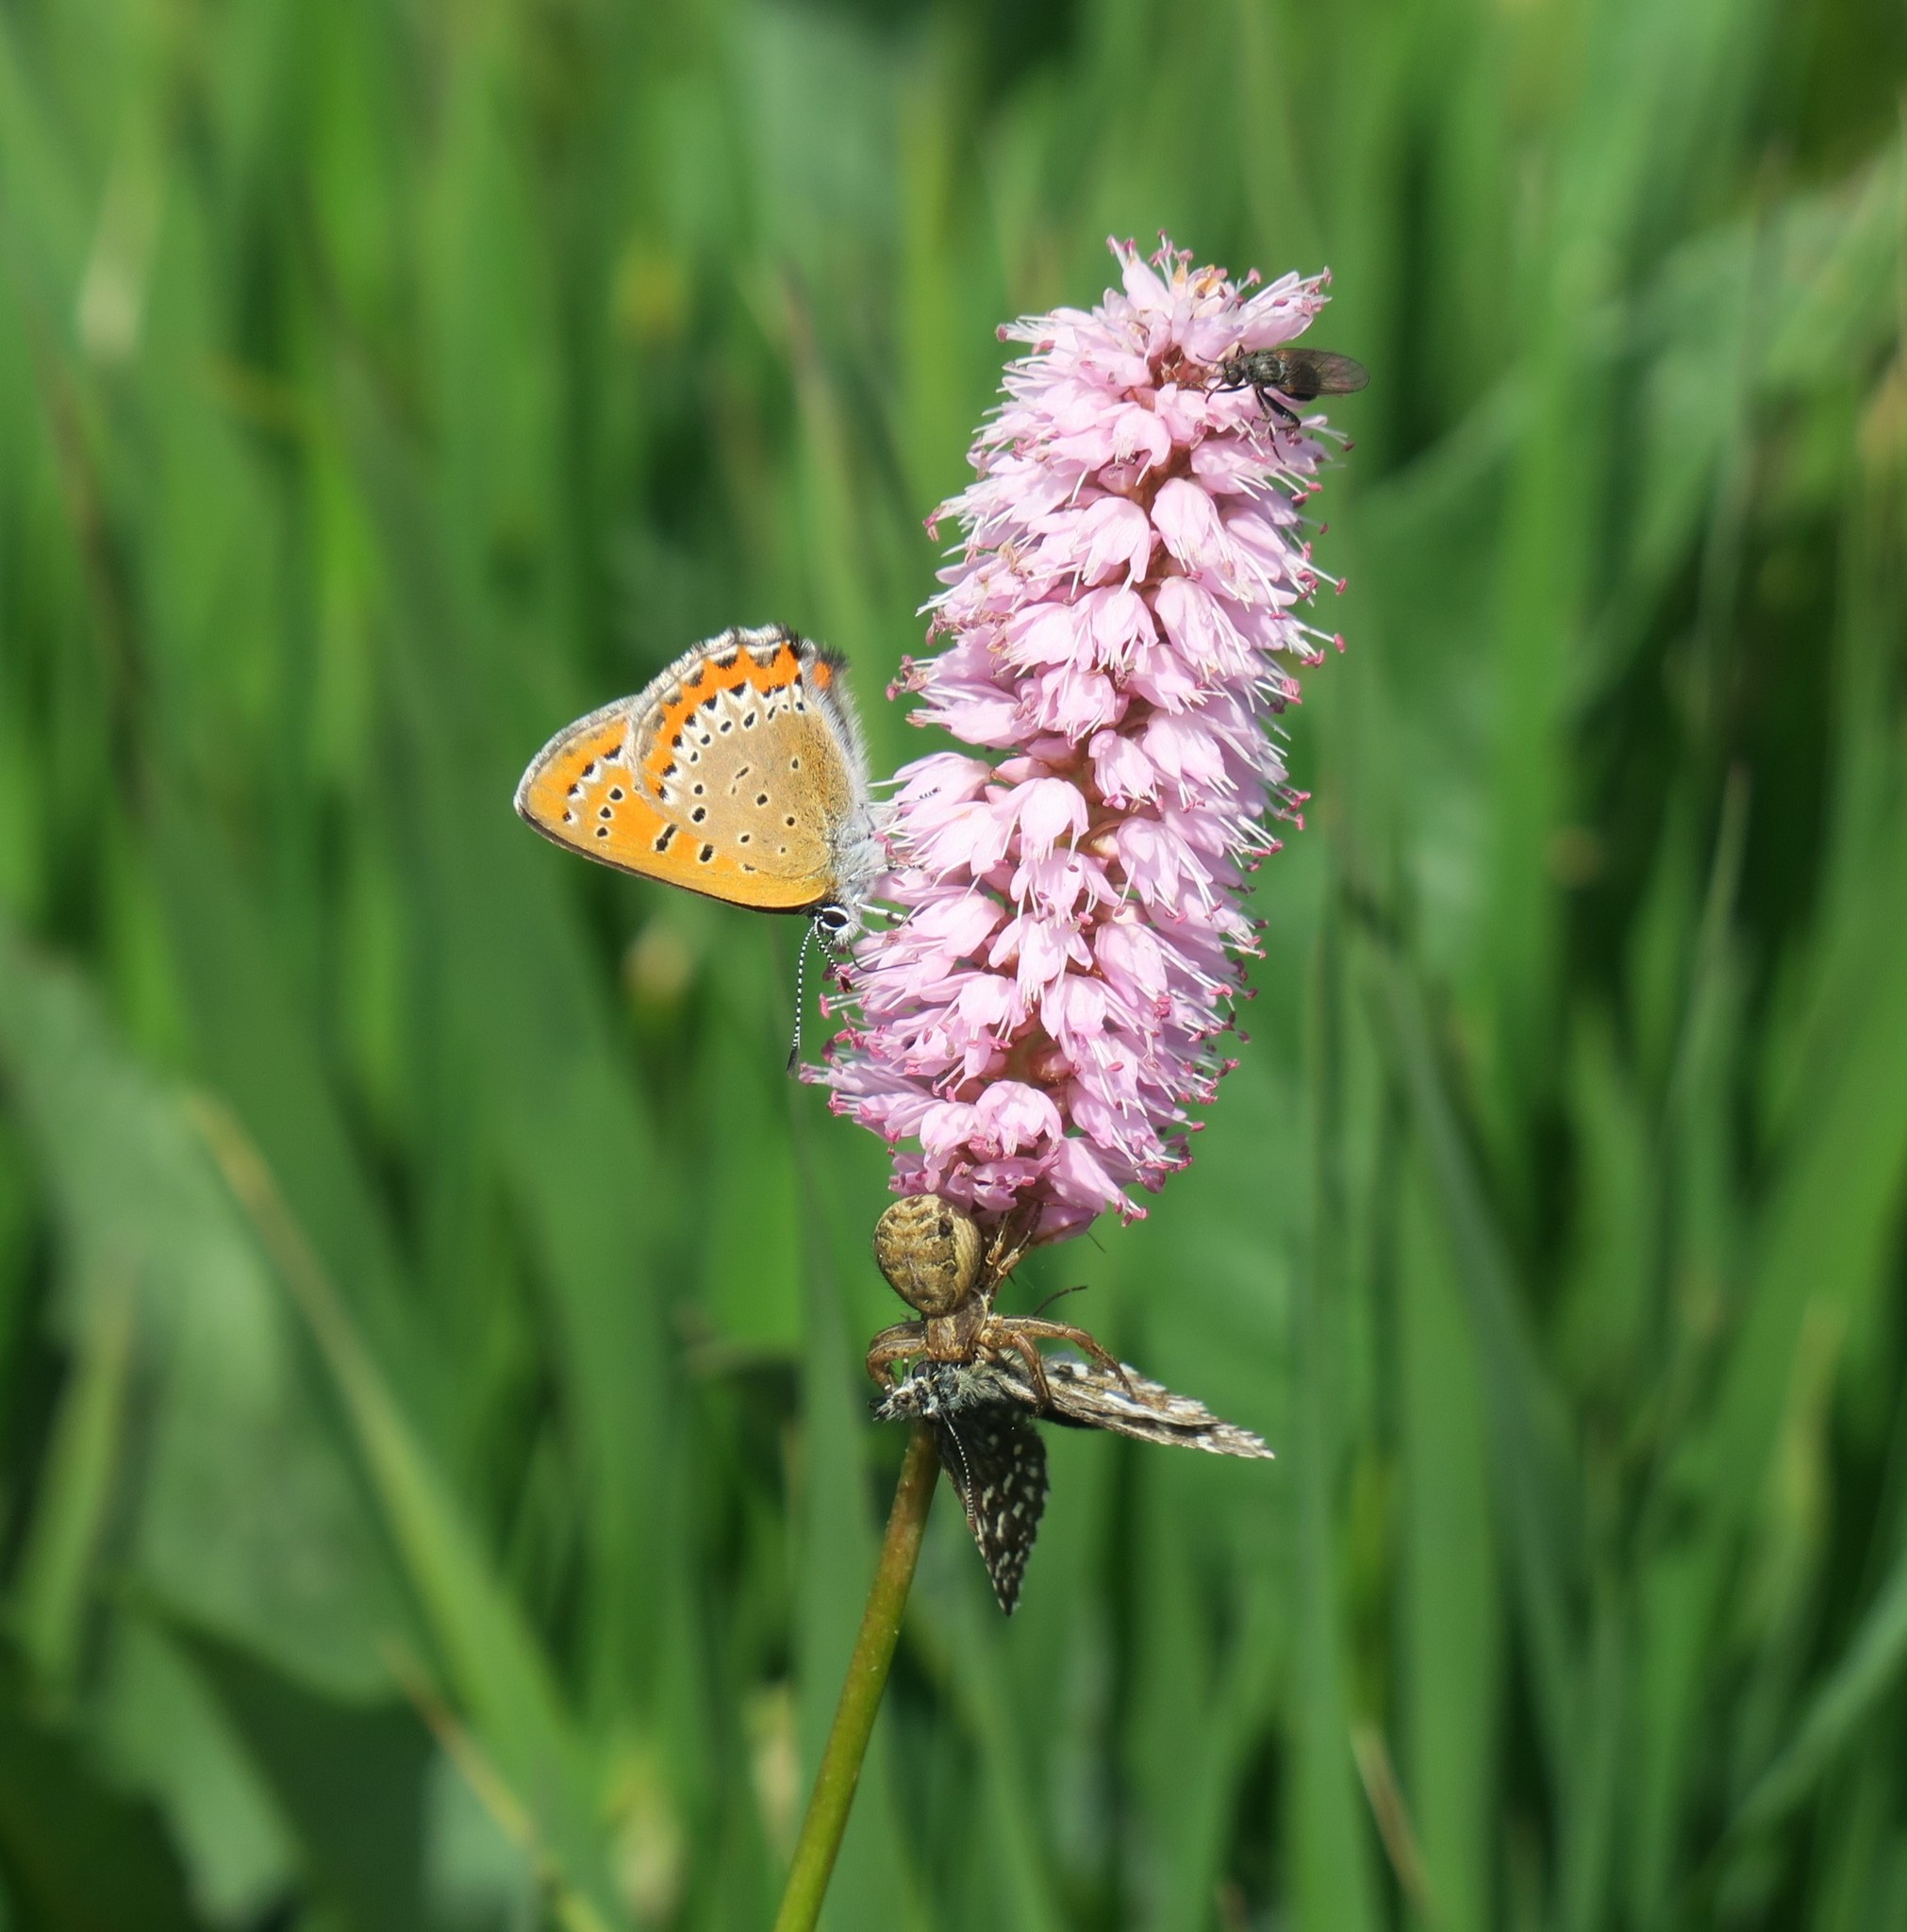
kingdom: Animalia
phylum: Arthropoda
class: Insecta
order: Lepidoptera
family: Lycaenidae
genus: Helleia
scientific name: Helleia helle
